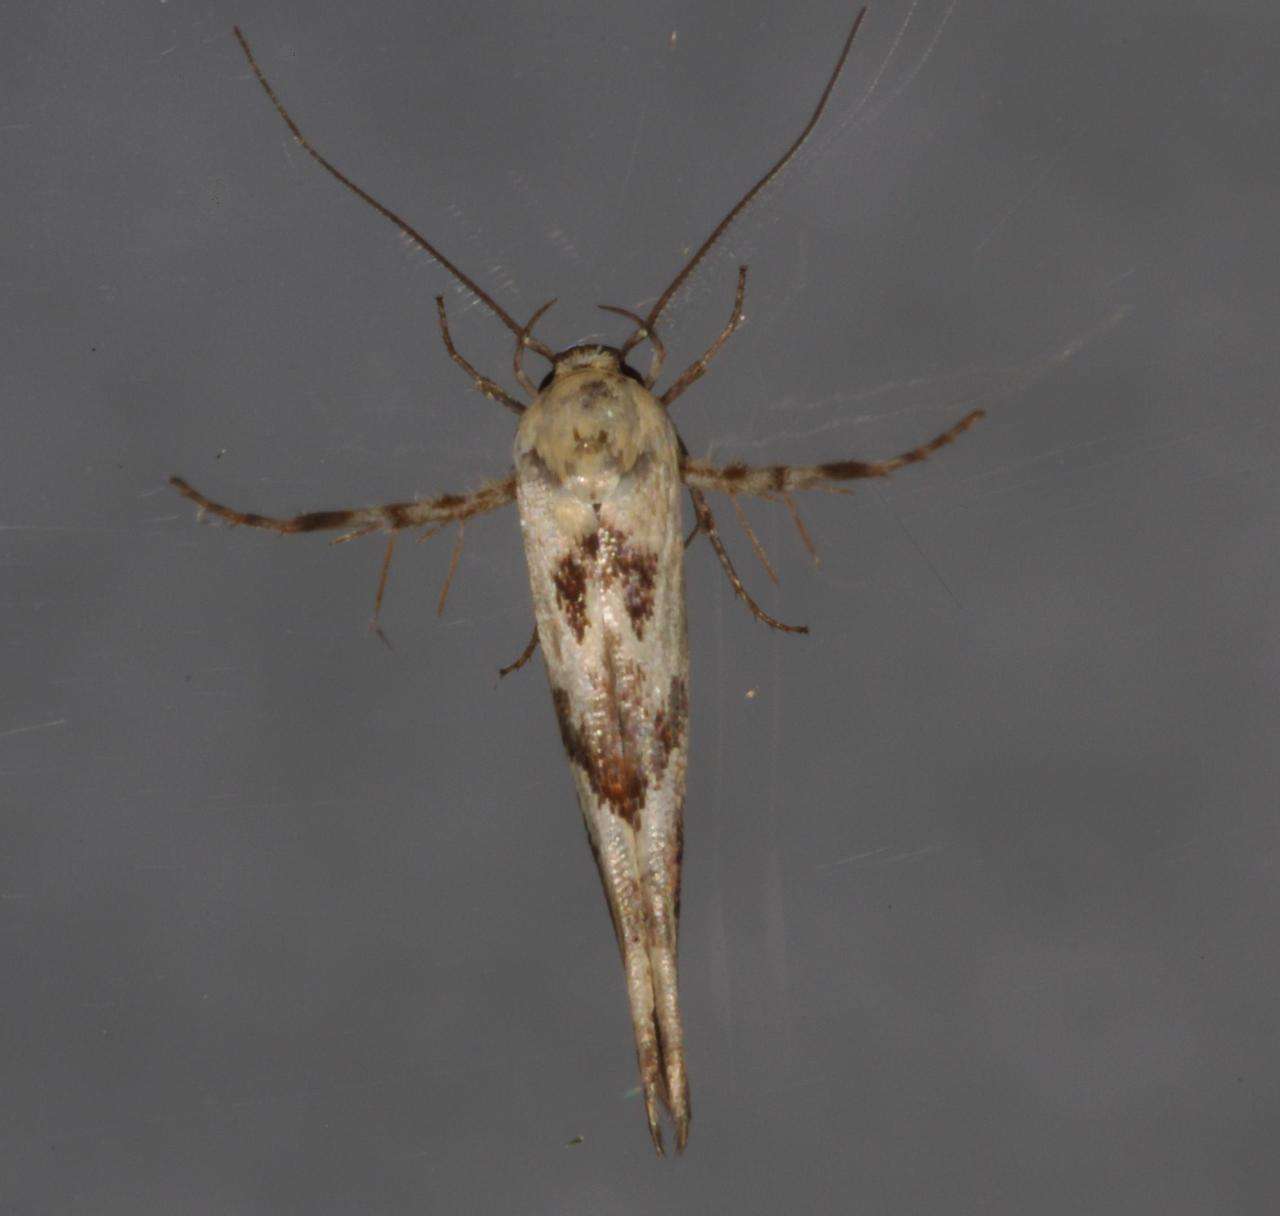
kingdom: Animalia
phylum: Arthropoda
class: Insecta
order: Lepidoptera
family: Stathmopodidae
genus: Stathmopoda
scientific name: Stathmopoda melanochra
